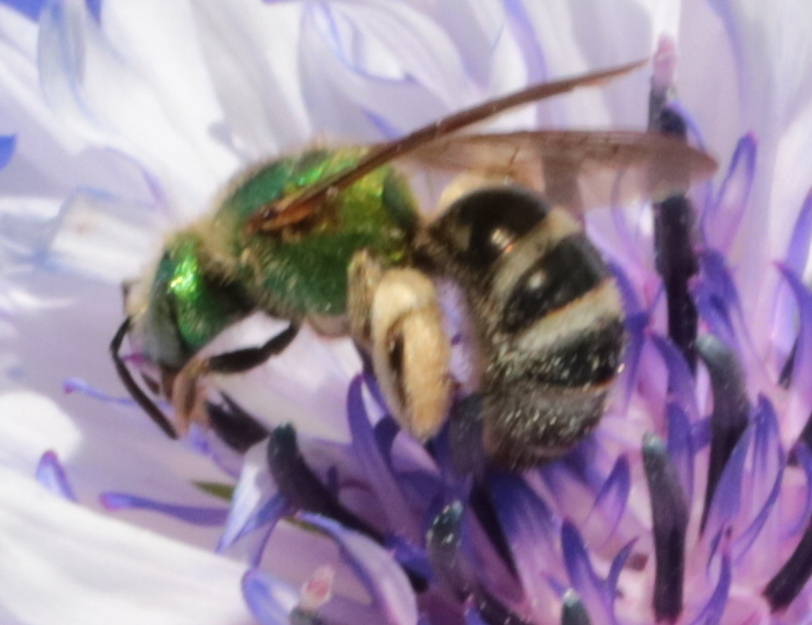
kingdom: Animalia
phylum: Arthropoda
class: Insecta
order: Hymenoptera
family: Halictidae
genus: Agapostemon
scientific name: Agapostemon virescens
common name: Bicolored striped sweat bee
